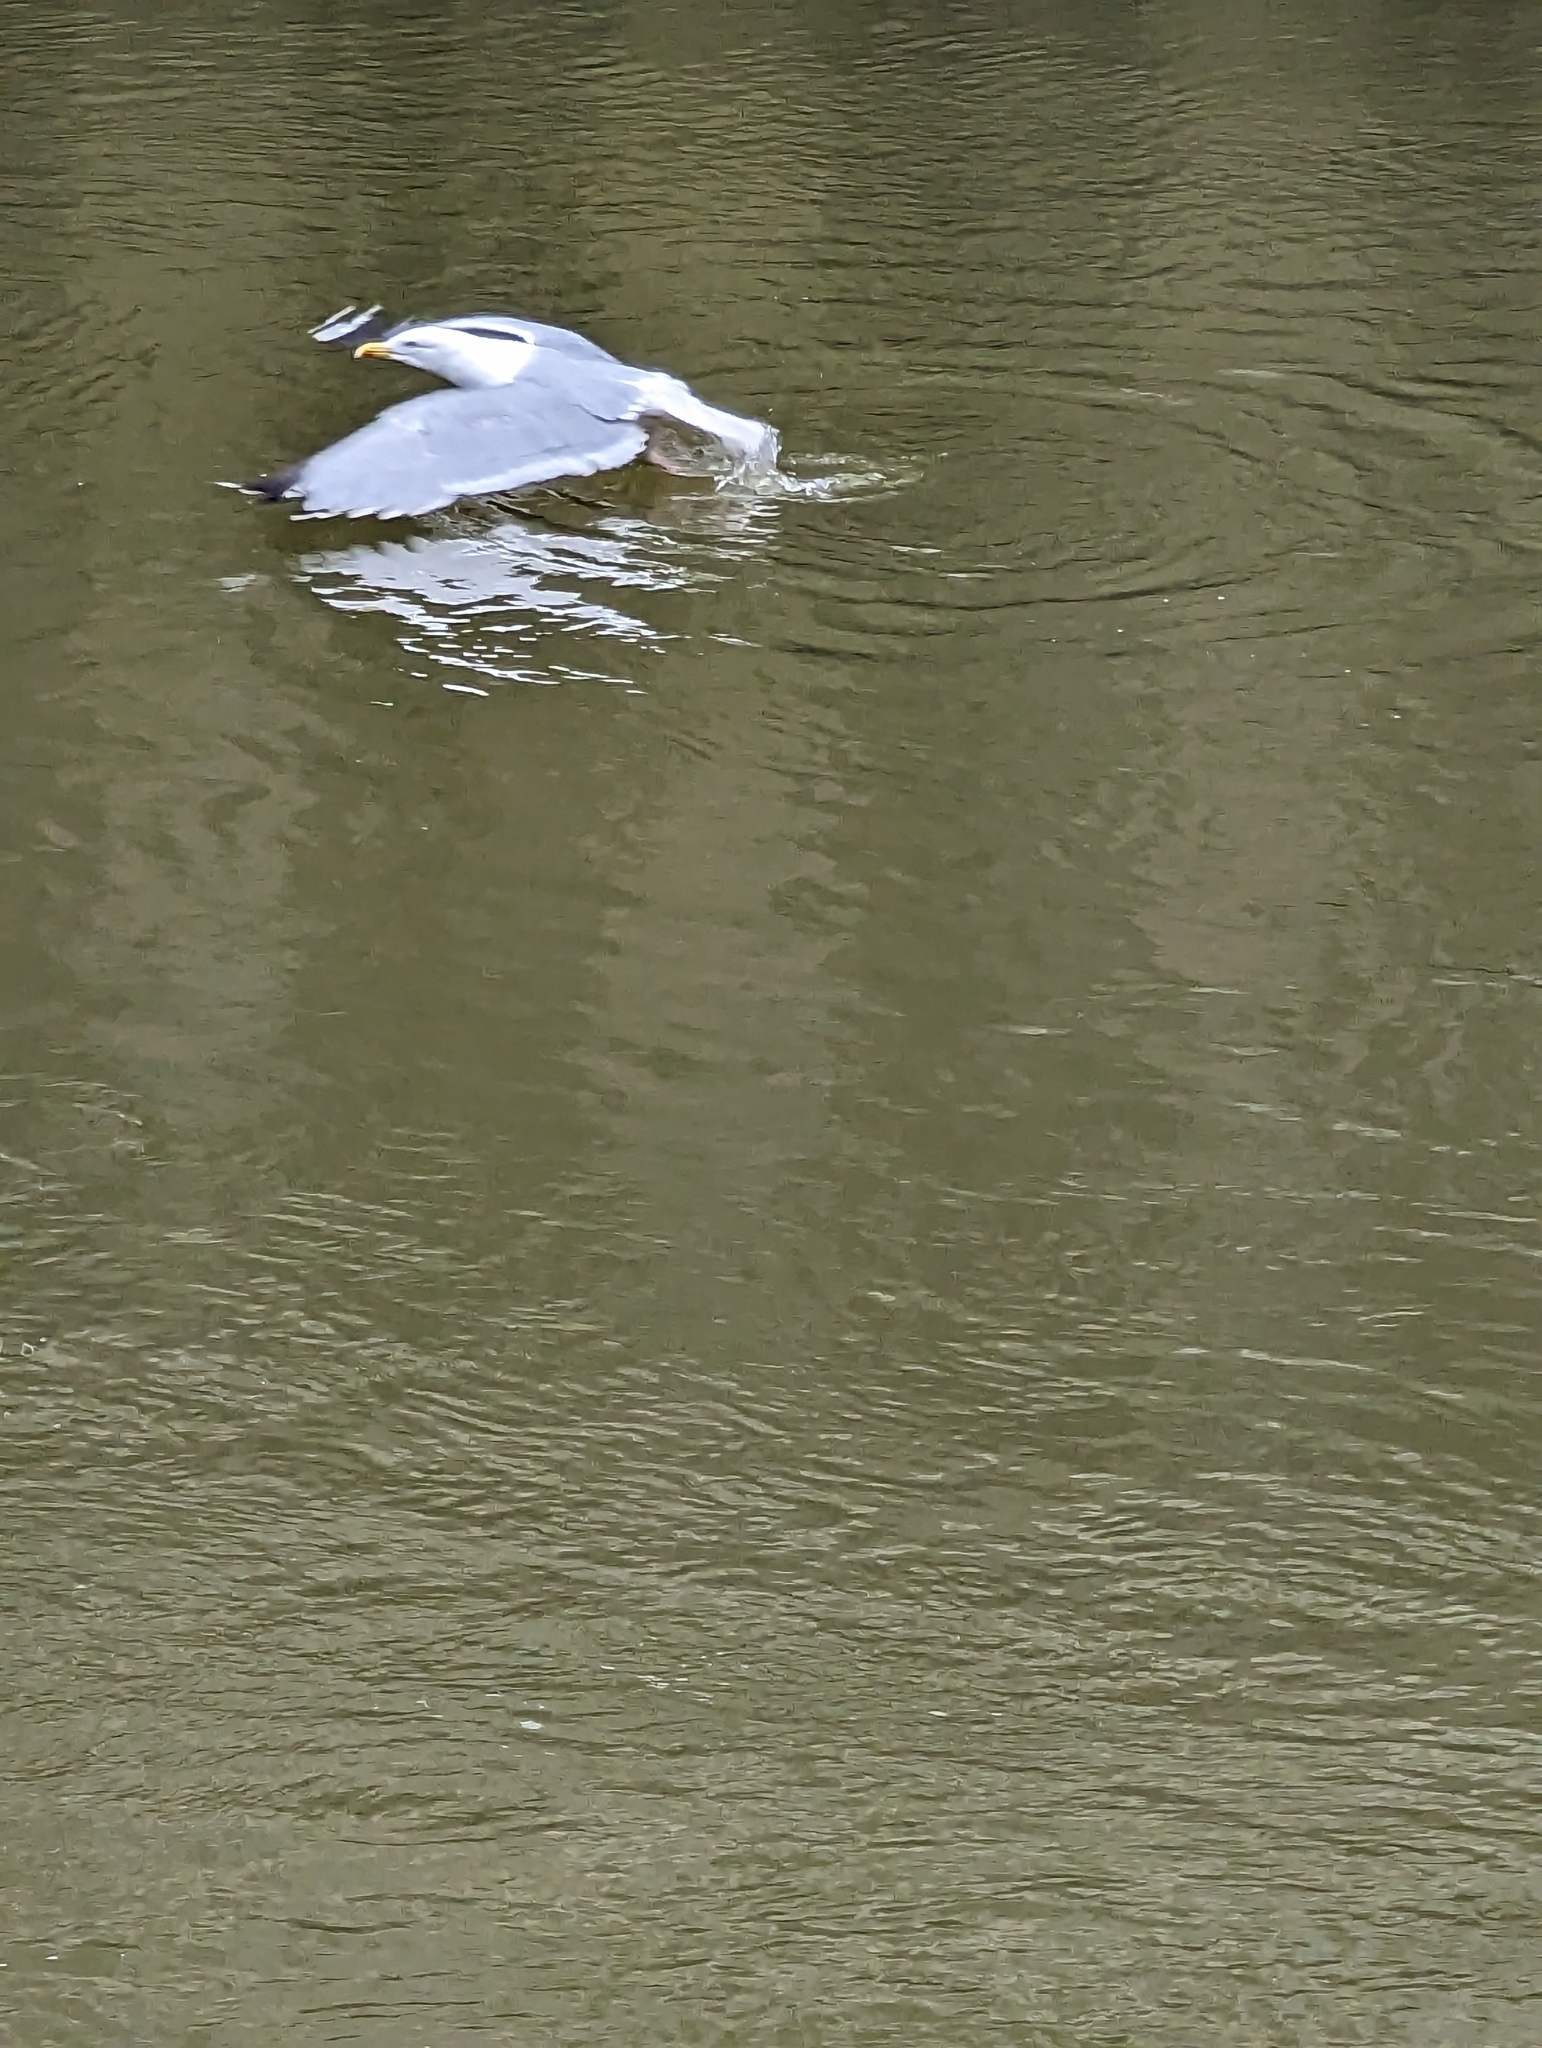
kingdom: Animalia
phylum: Chordata
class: Aves
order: Charadriiformes
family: Laridae
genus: Larus
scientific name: Larus argentatus
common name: Herring gull
